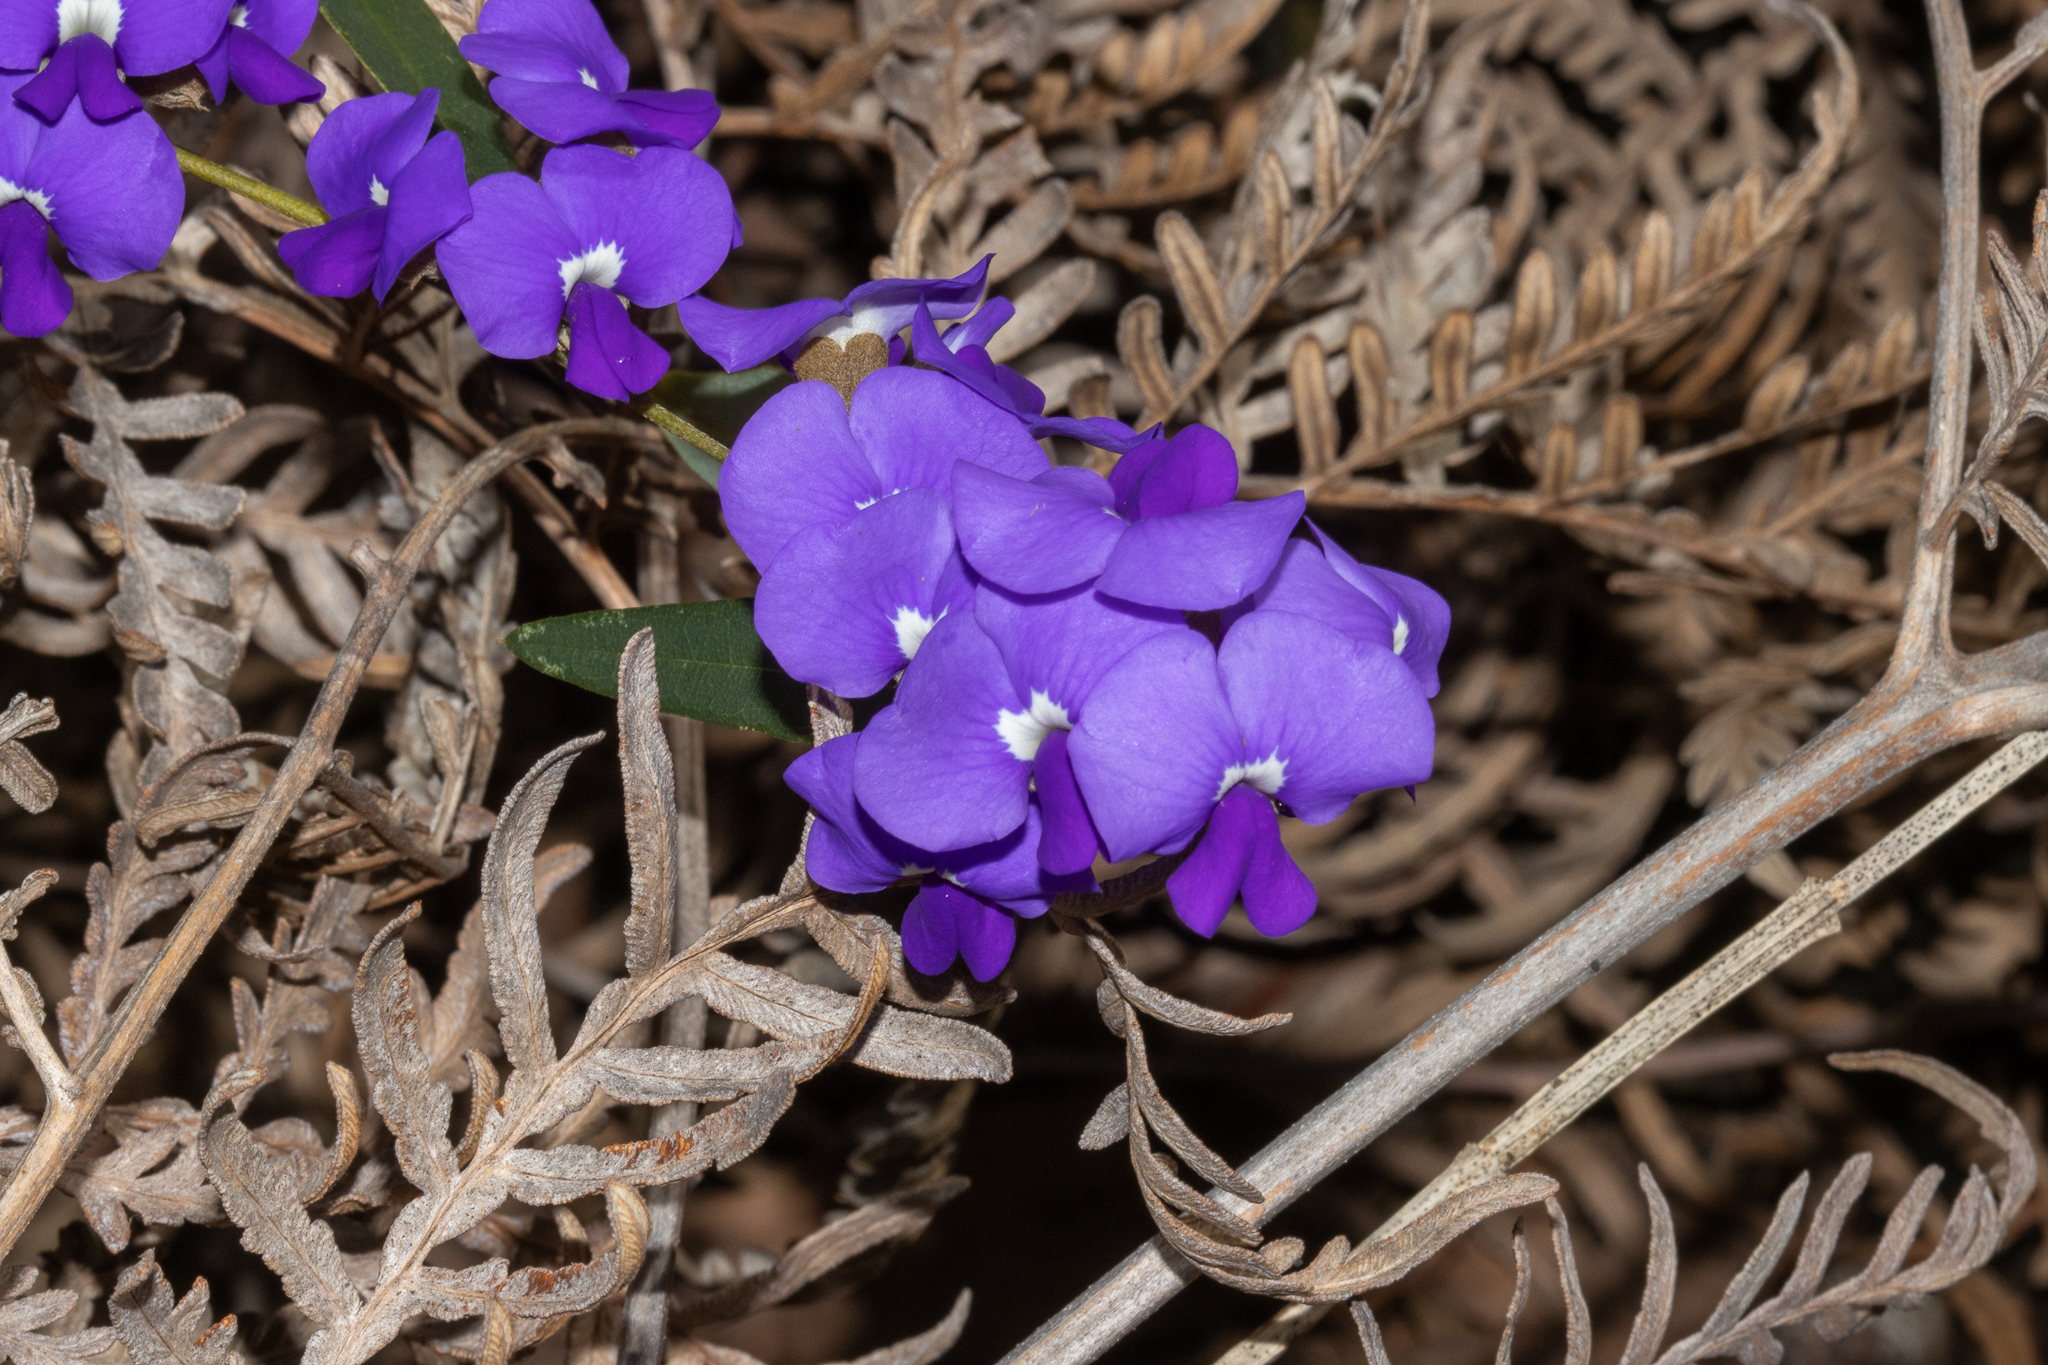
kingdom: Plantae
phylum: Tracheophyta
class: Magnoliopsida
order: Fabales
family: Fabaceae
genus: Hovea
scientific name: Hovea trisperma
